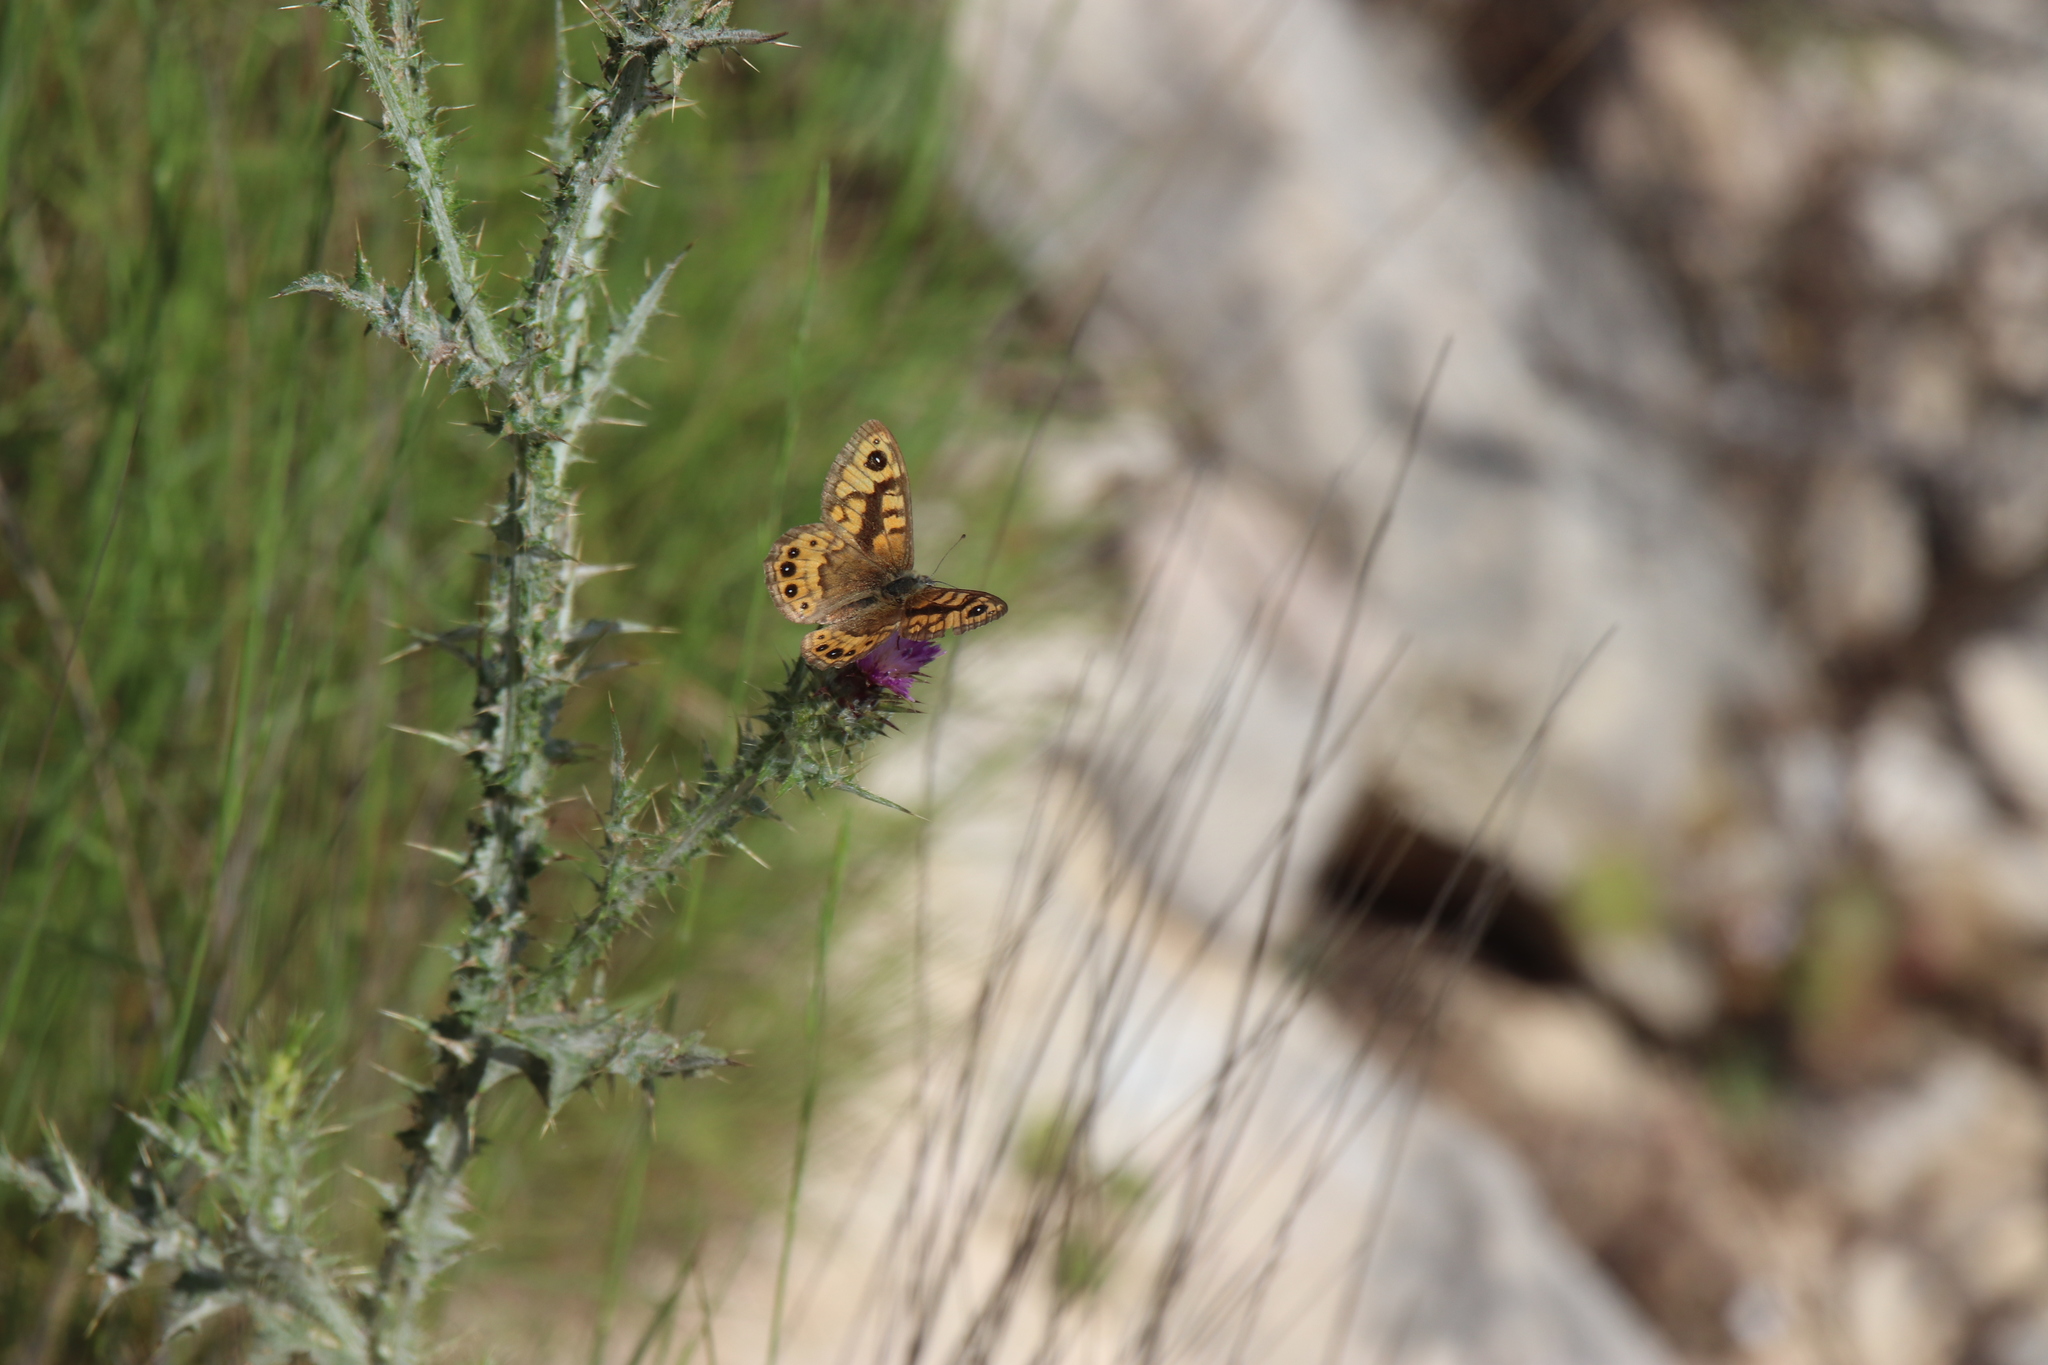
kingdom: Animalia
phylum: Arthropoda
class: Insecta
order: Lepidoptera
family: Nymphalidae
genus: Pararge
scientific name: Pararge Lasiommata megera
